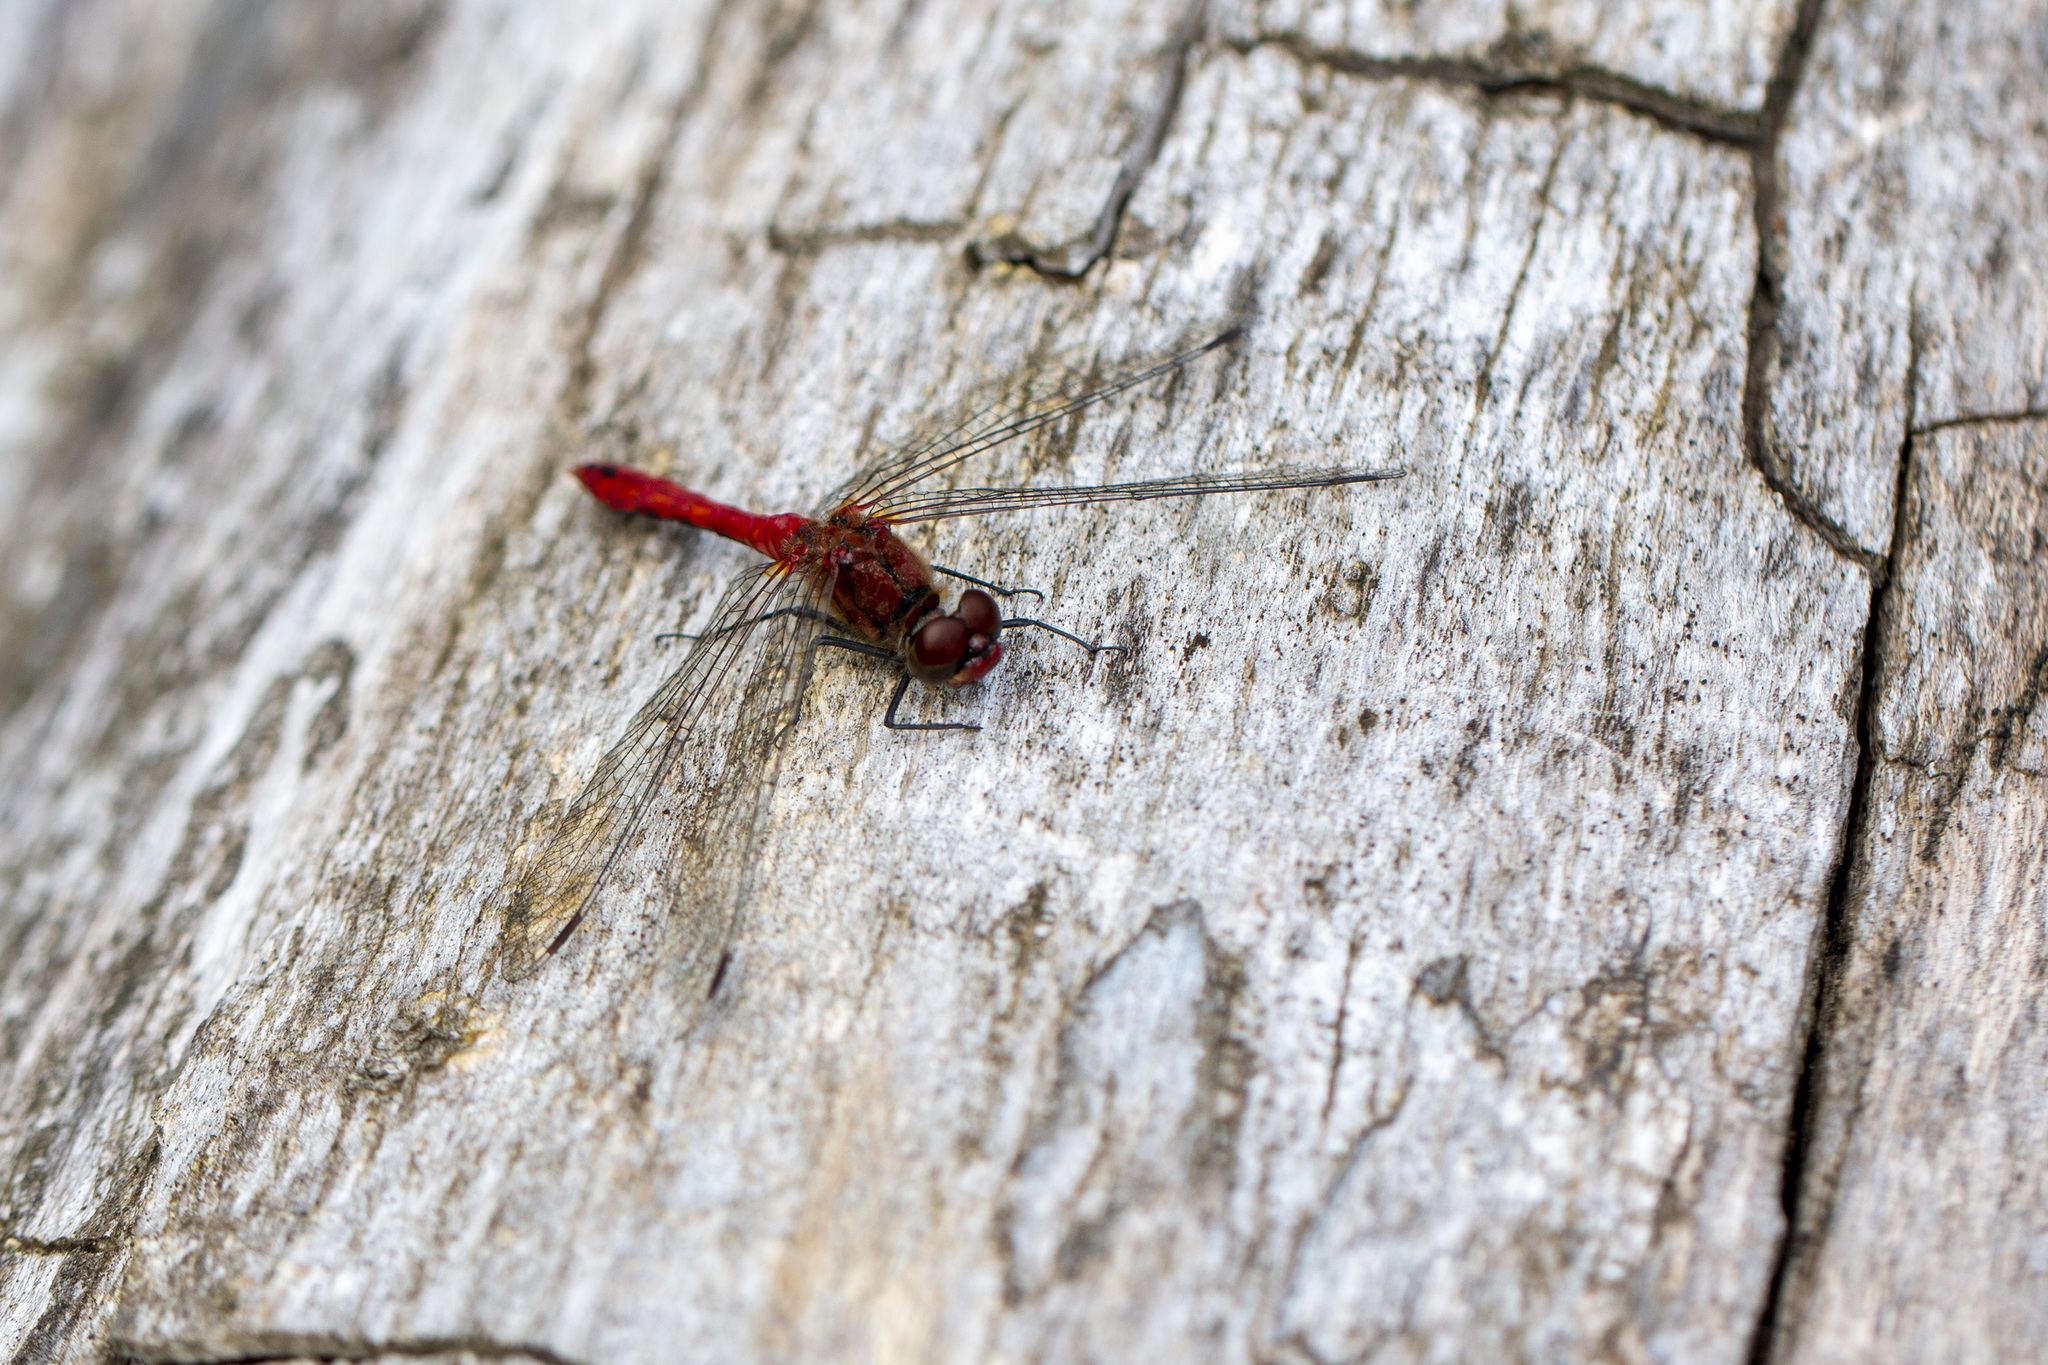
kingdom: Animalia
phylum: Arthropoda
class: Insecta
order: Odonata
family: Libellulidae
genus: Sympetrum
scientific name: Sympetrum sanguineum
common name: Ruddy darter
